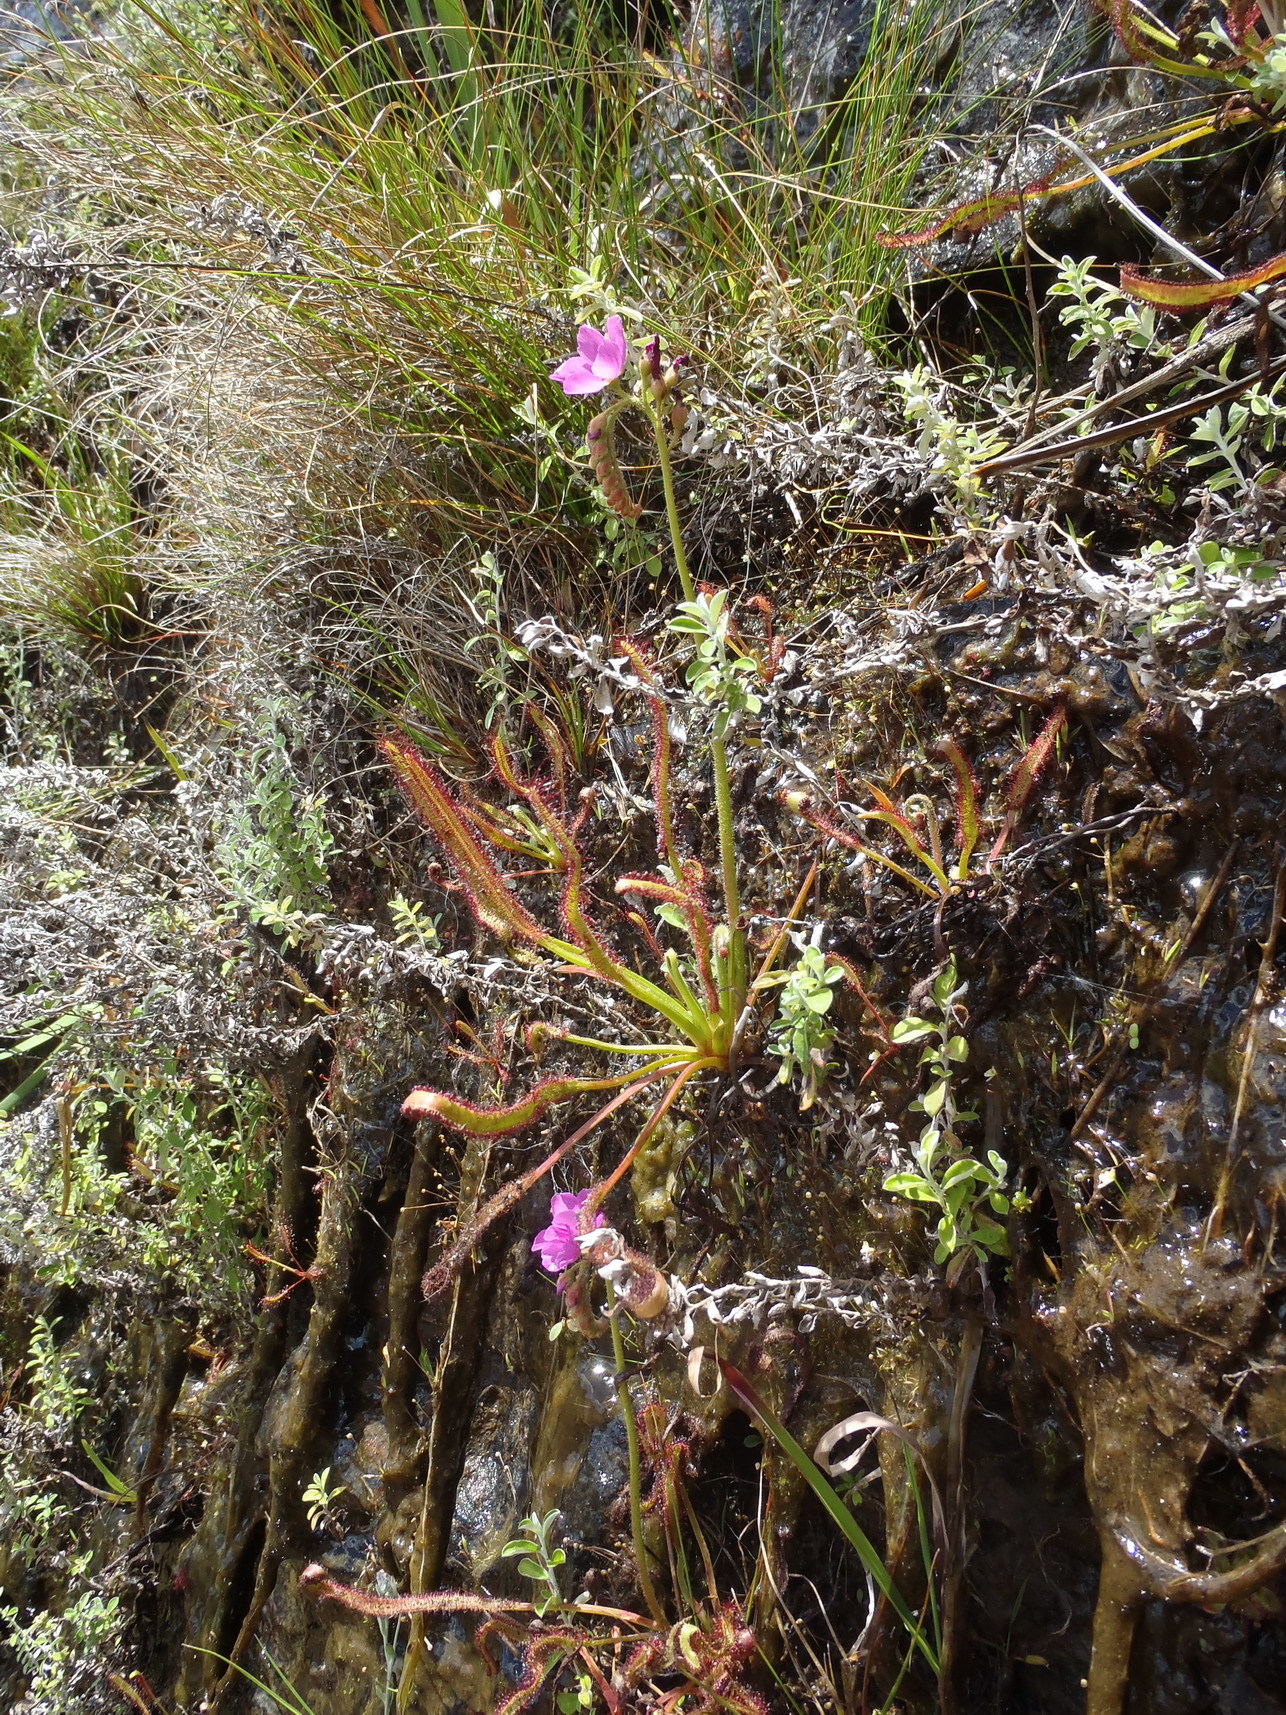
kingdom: Plantae
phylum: Tracheophyta
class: Magnoliopsida
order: Caryophyllales
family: Droseraceae
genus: Drosera
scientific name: Drosera capensis
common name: Cape sundew
